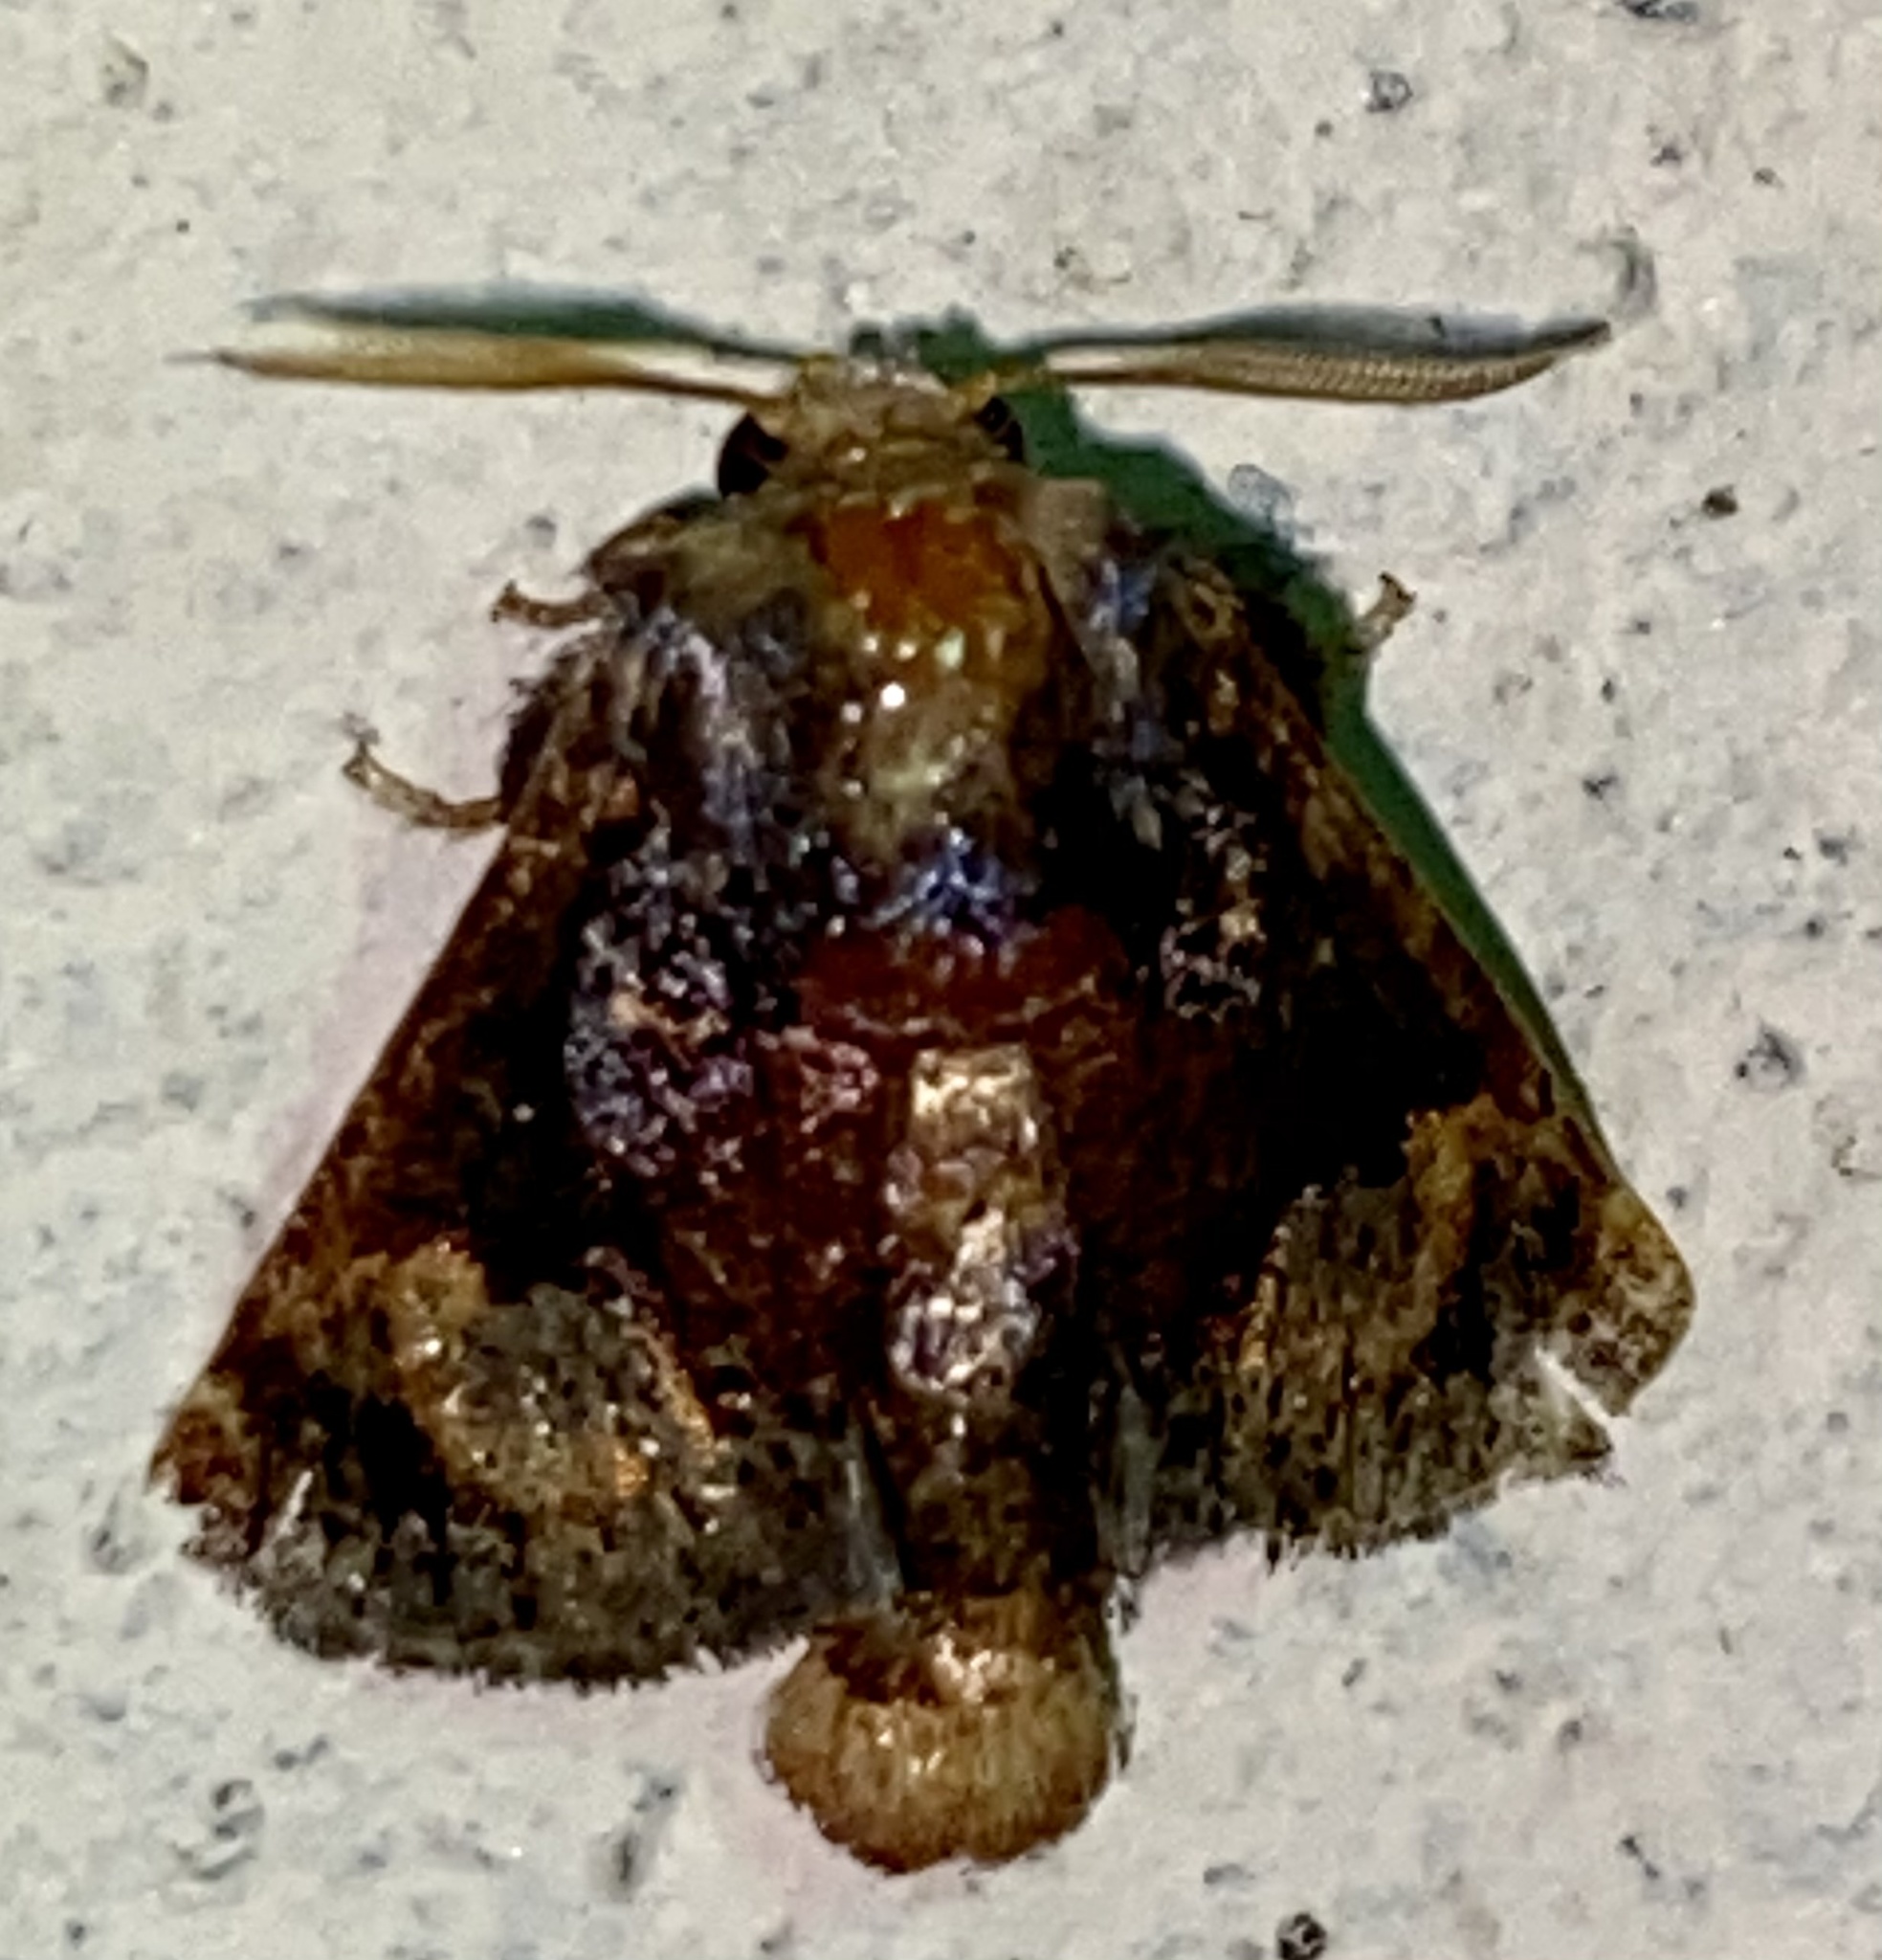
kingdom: Animalia
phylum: Arthropoda
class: Insecta
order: Lepidoptera
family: Limacodidae
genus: Euphobetron
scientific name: Euphobetron cupreitincta
